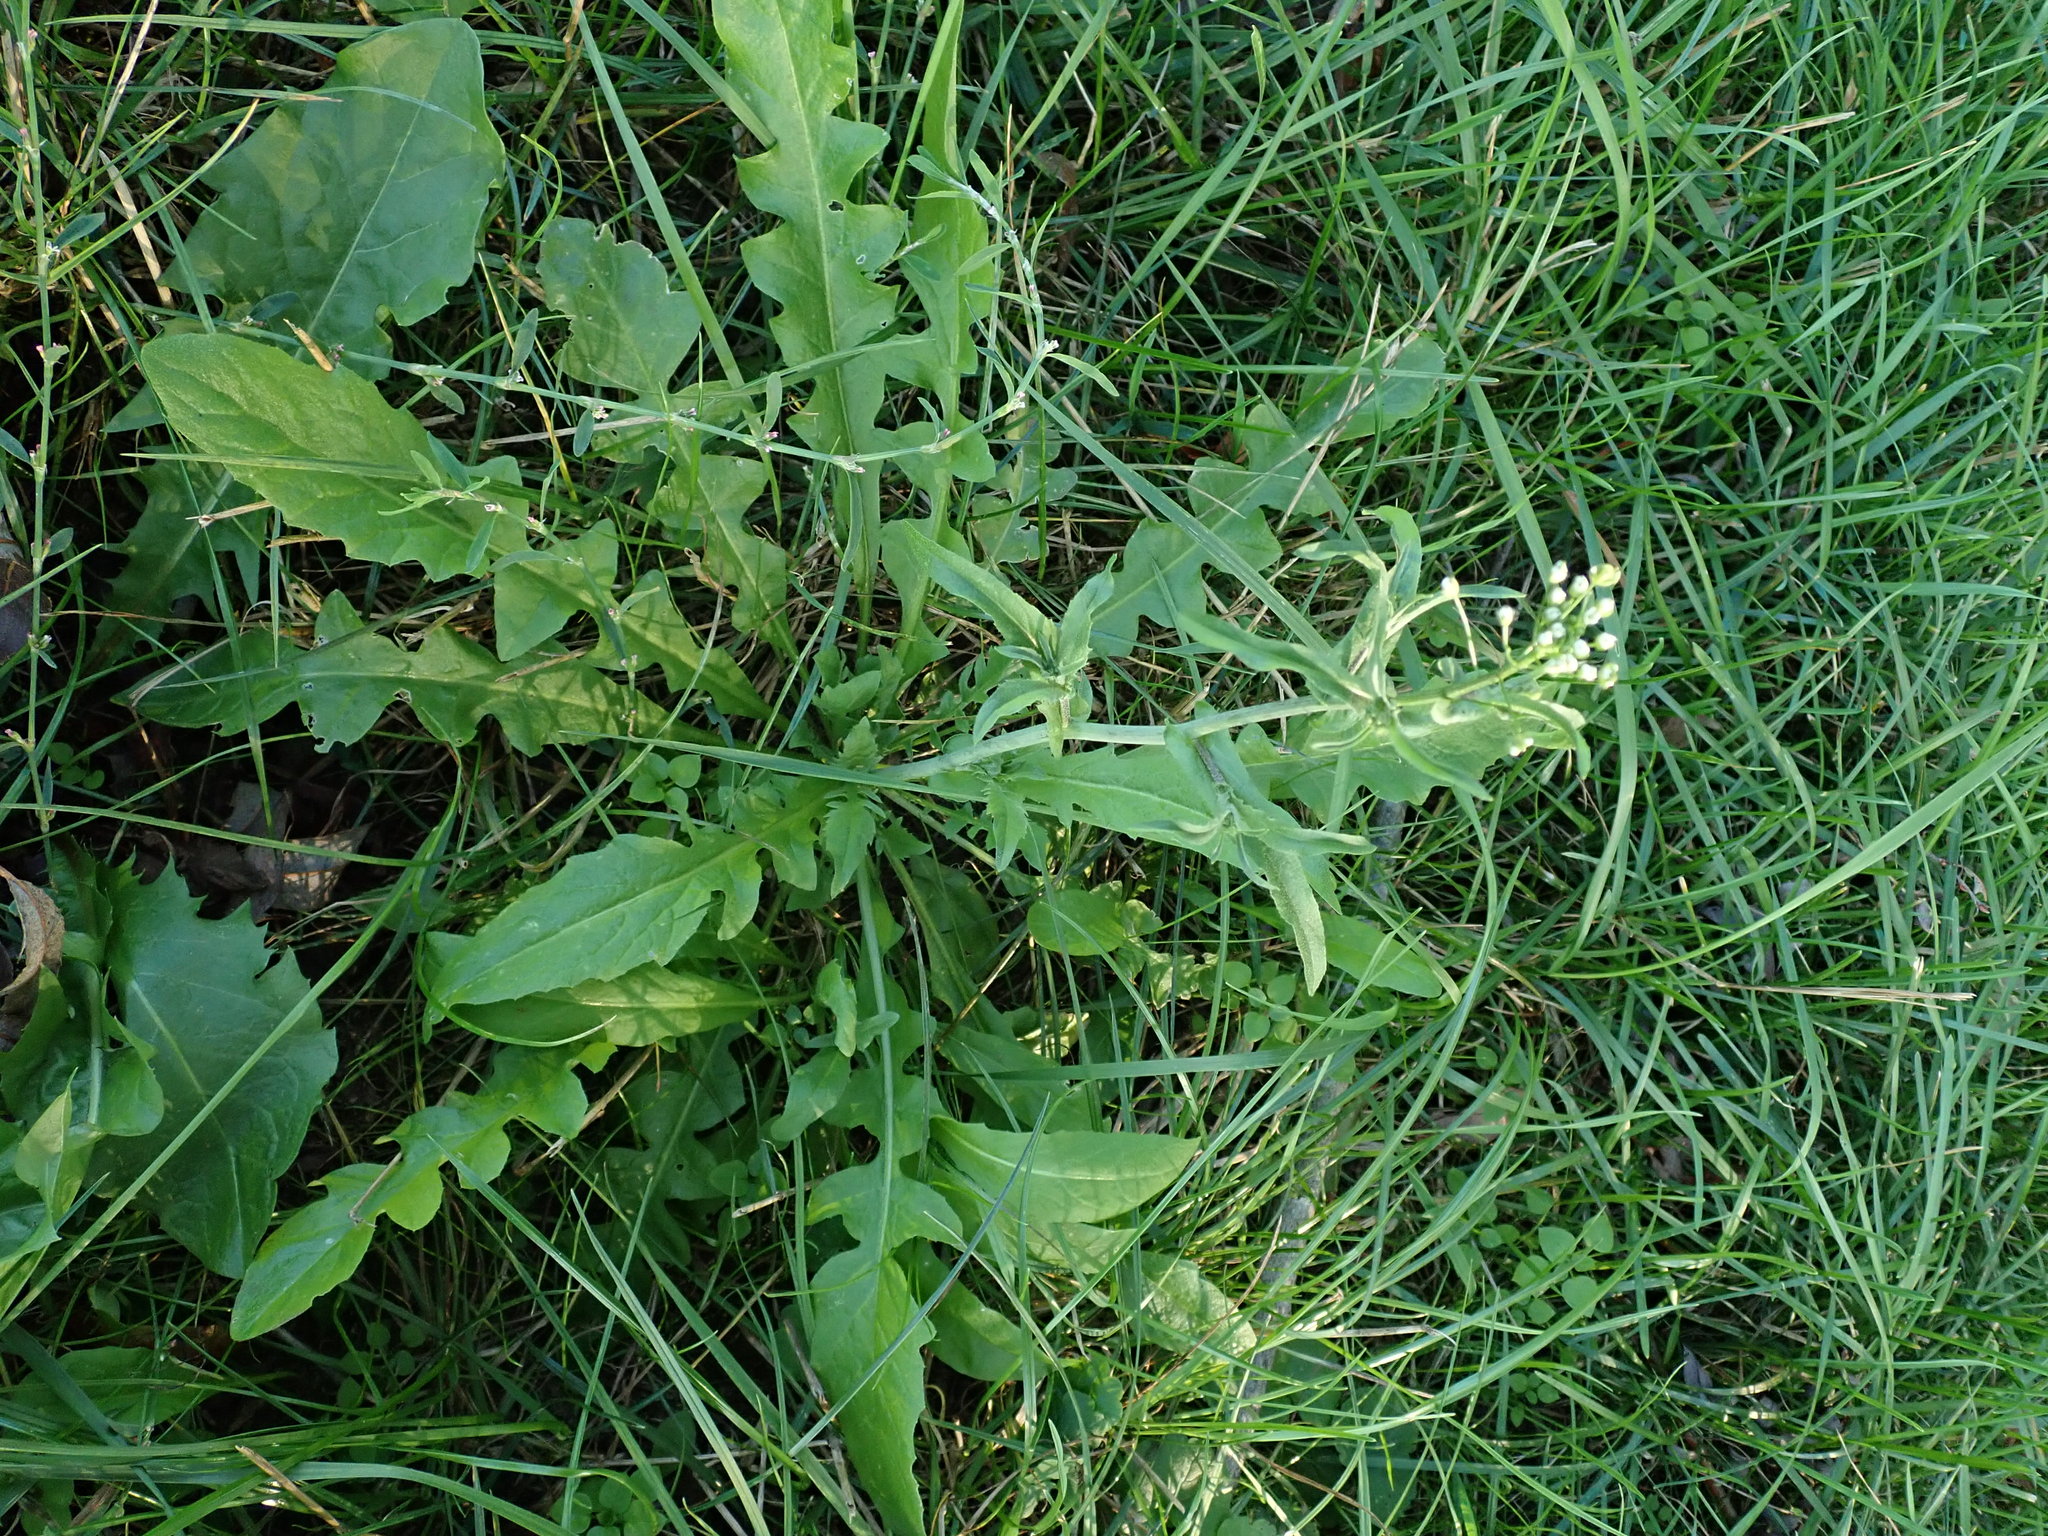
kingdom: Plantae
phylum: Tracheophyta
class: Magnoliopsida
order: Brassicales
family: Brassicaceae
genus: Capsella
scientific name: Capsella bursa-pastoris
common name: Shepherd's purse
